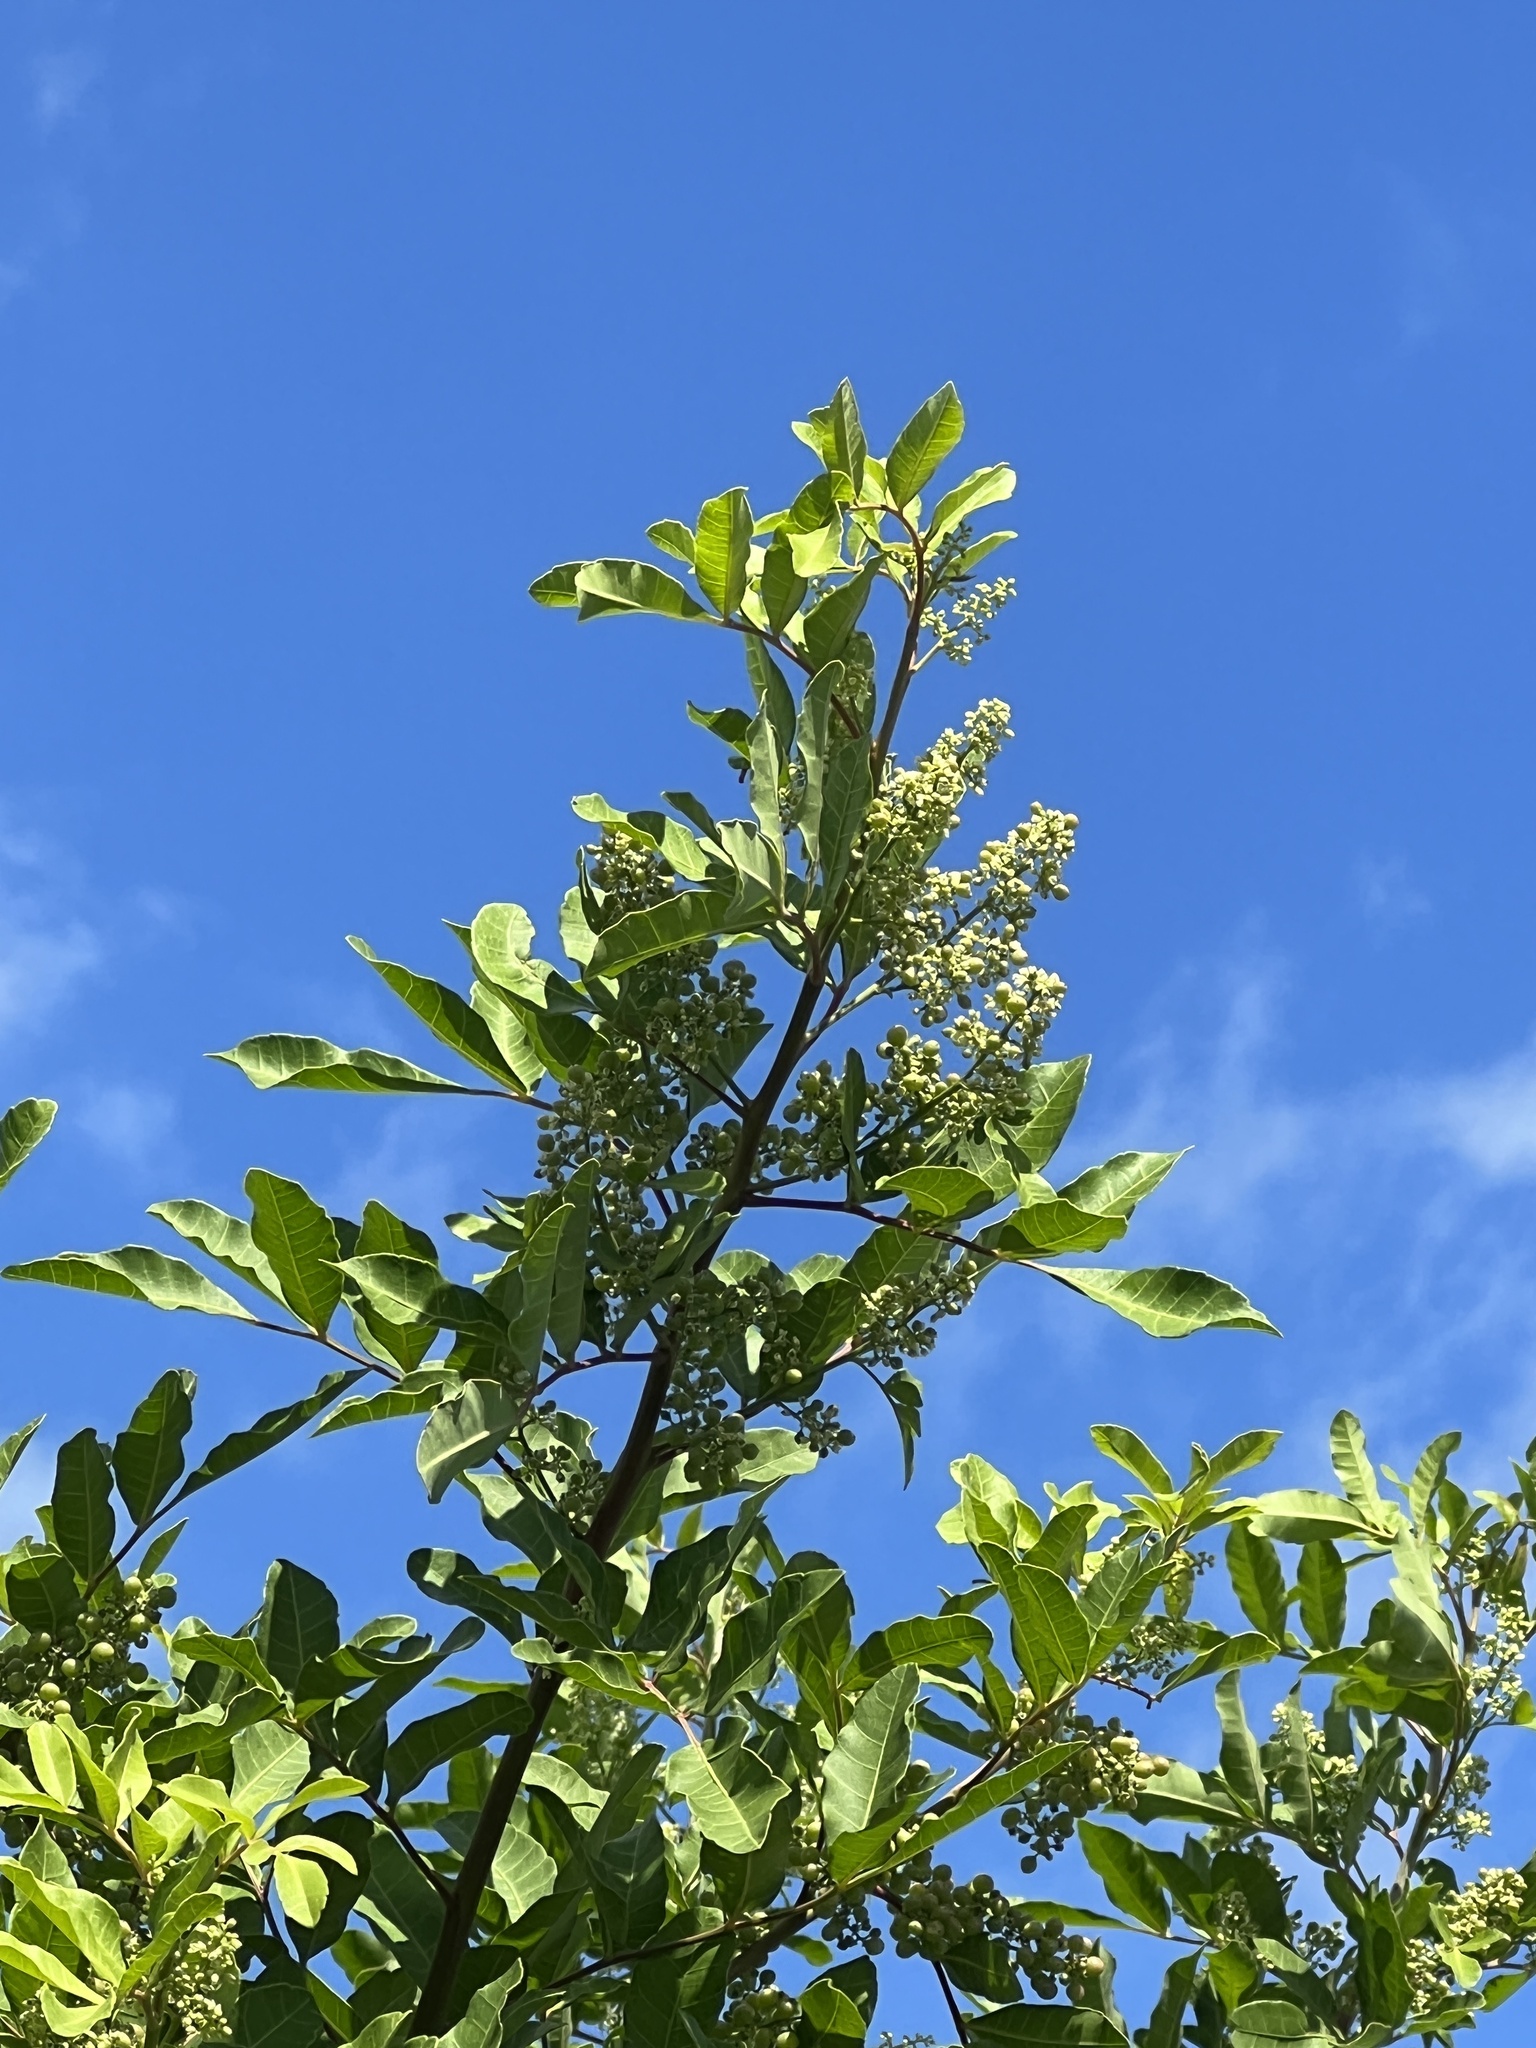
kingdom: Plantae
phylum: Tracheophyta
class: Magnoliopsida
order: Sapindales
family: Anacardiaceae
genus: Schinus
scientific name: Schinus terebinthifolia
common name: Brazilian peppertree
